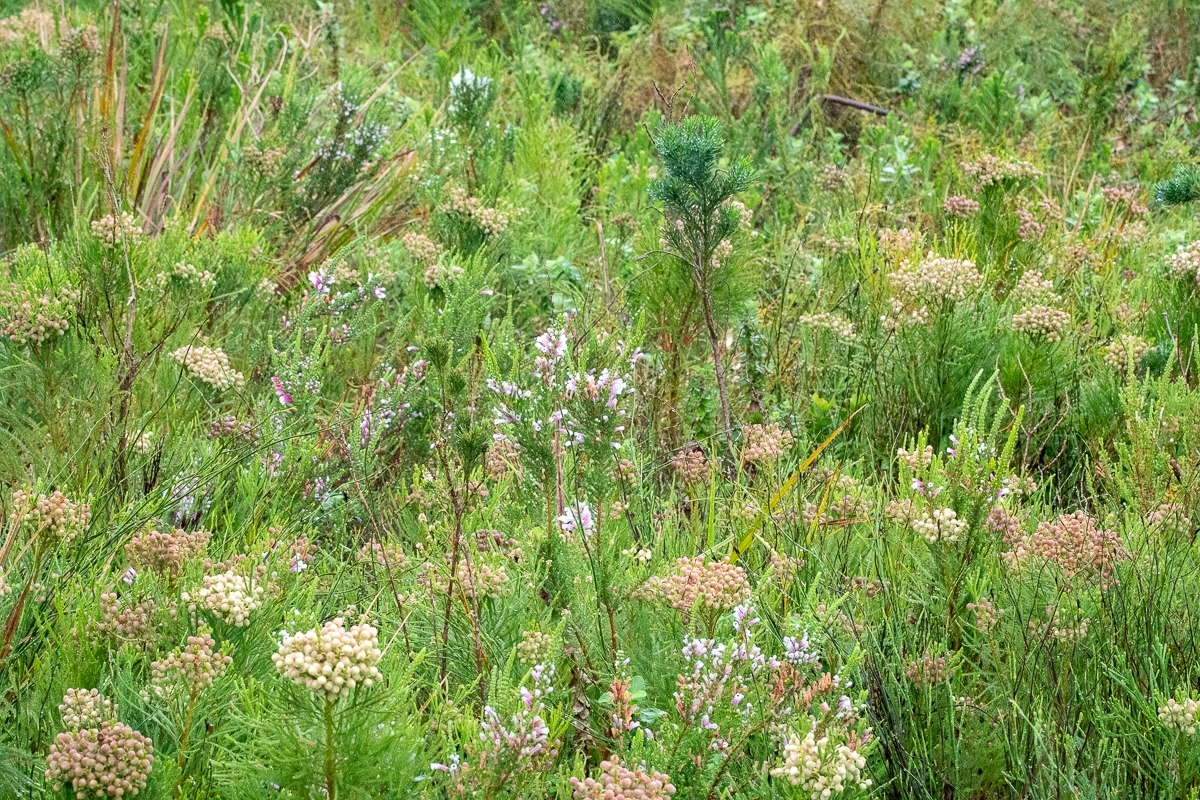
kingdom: Plantae
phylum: Tracheophyta
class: Magnoliopsida
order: Ericales
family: Ericaceae
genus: Erica
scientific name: Erica perspicua
